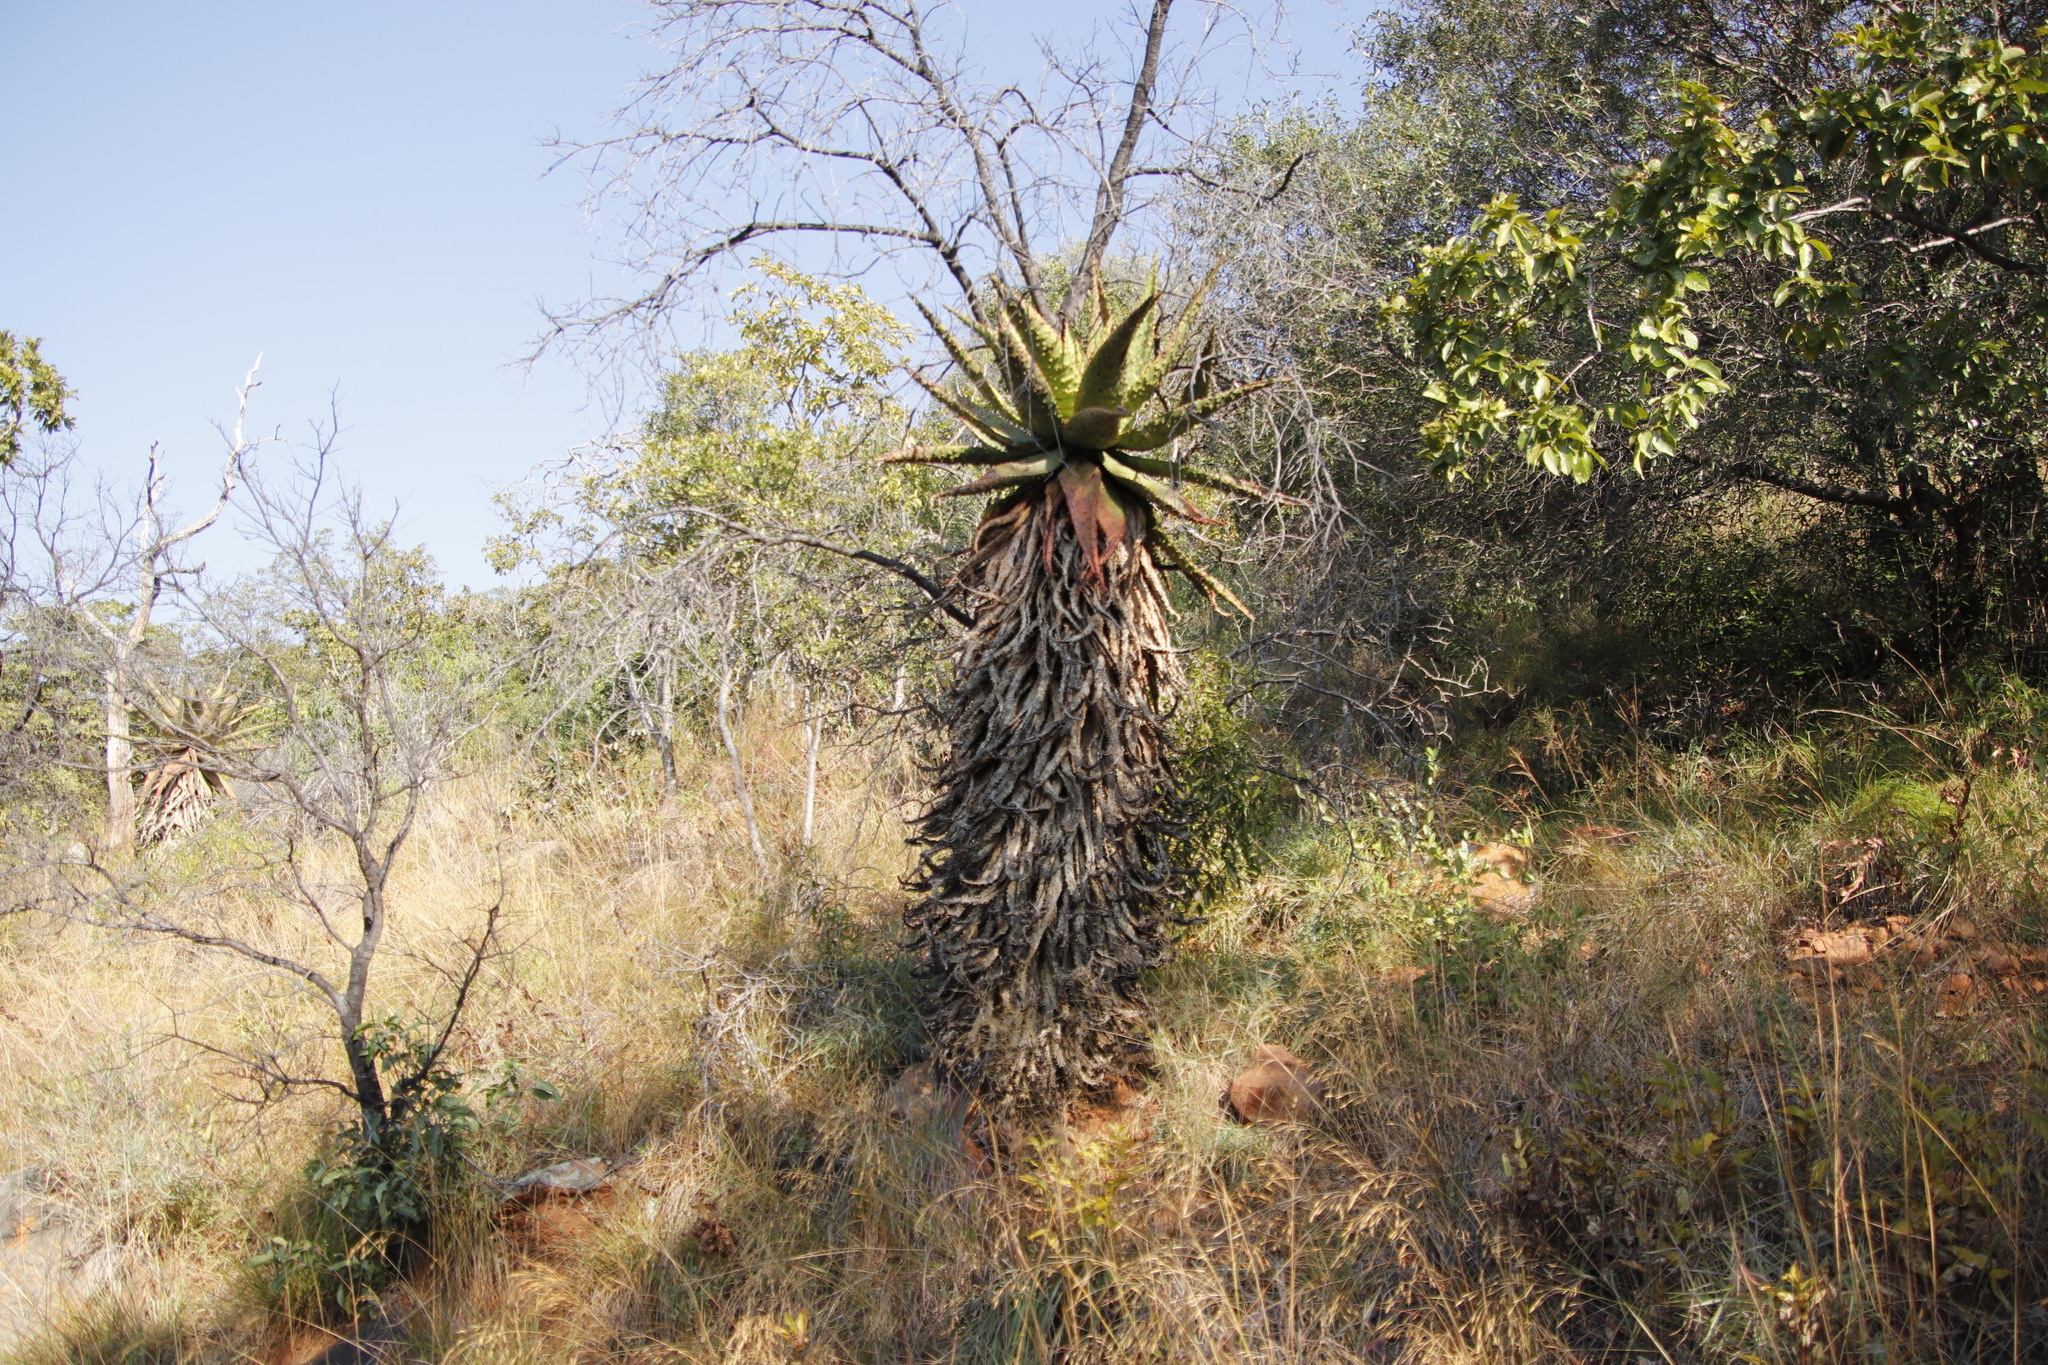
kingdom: Plantae
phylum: Tracheophyta
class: Liliopsida
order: Asparagales
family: Asphodelaceae
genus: Aloe
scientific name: Aloe marlothii
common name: Flat-flowered aloe
